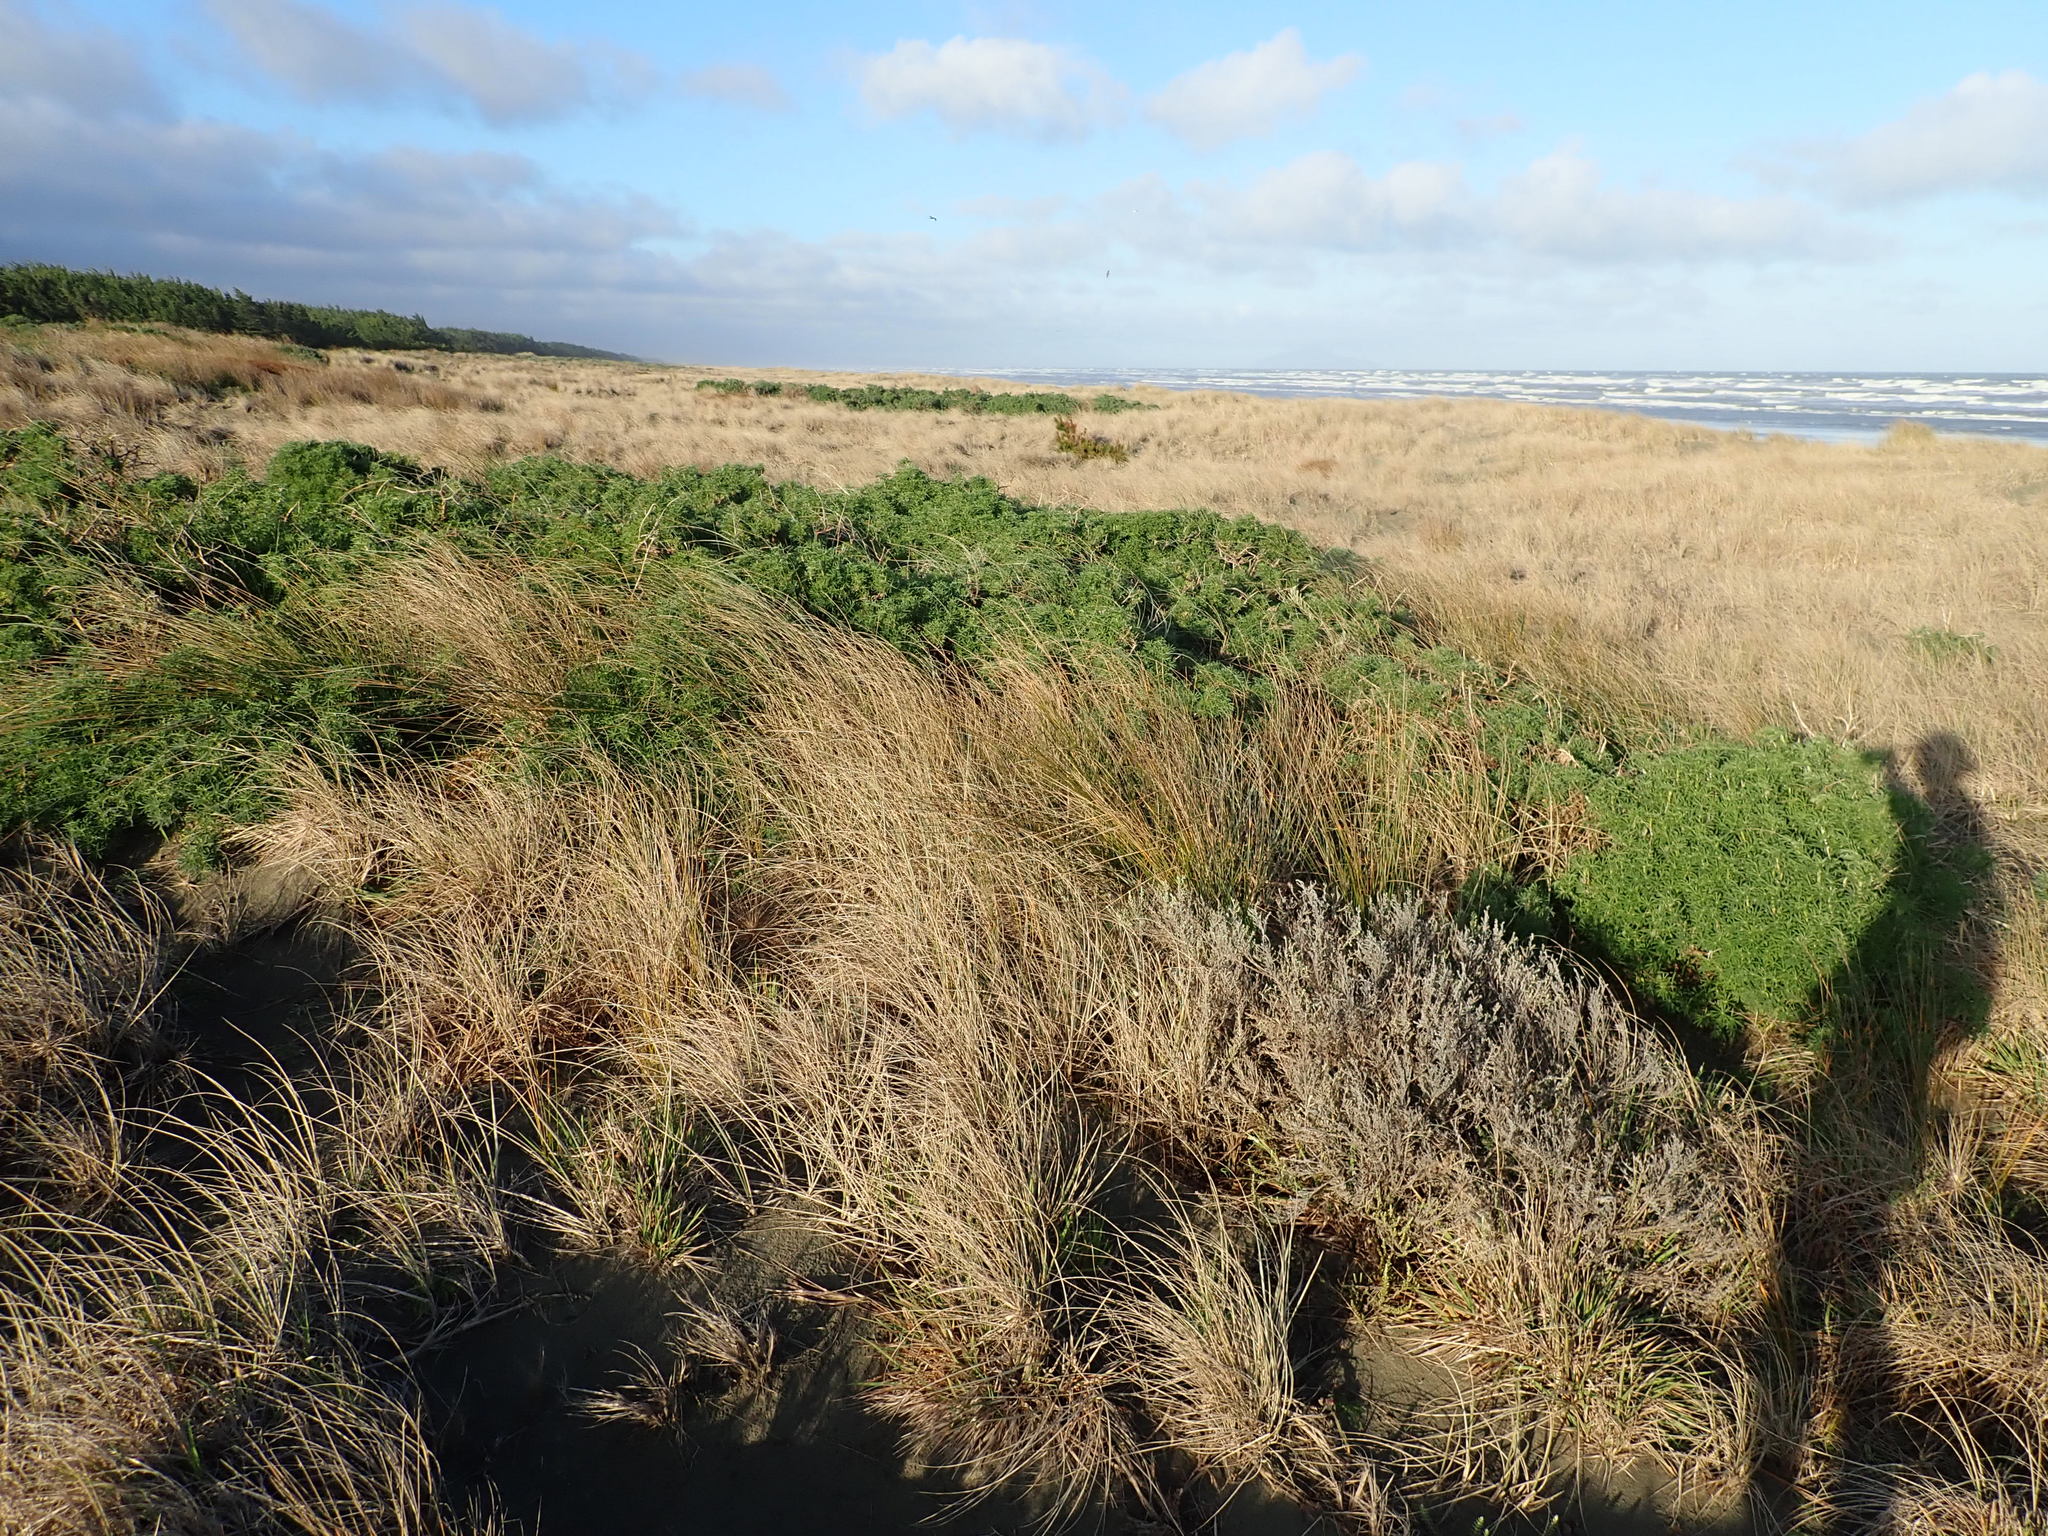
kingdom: Plantae
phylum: Tracheophyta
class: Magnoliopsida
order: Fabales
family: Fabaceae
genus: Lupinus
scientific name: Lupinus arboreus
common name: Yellow bush lupine
